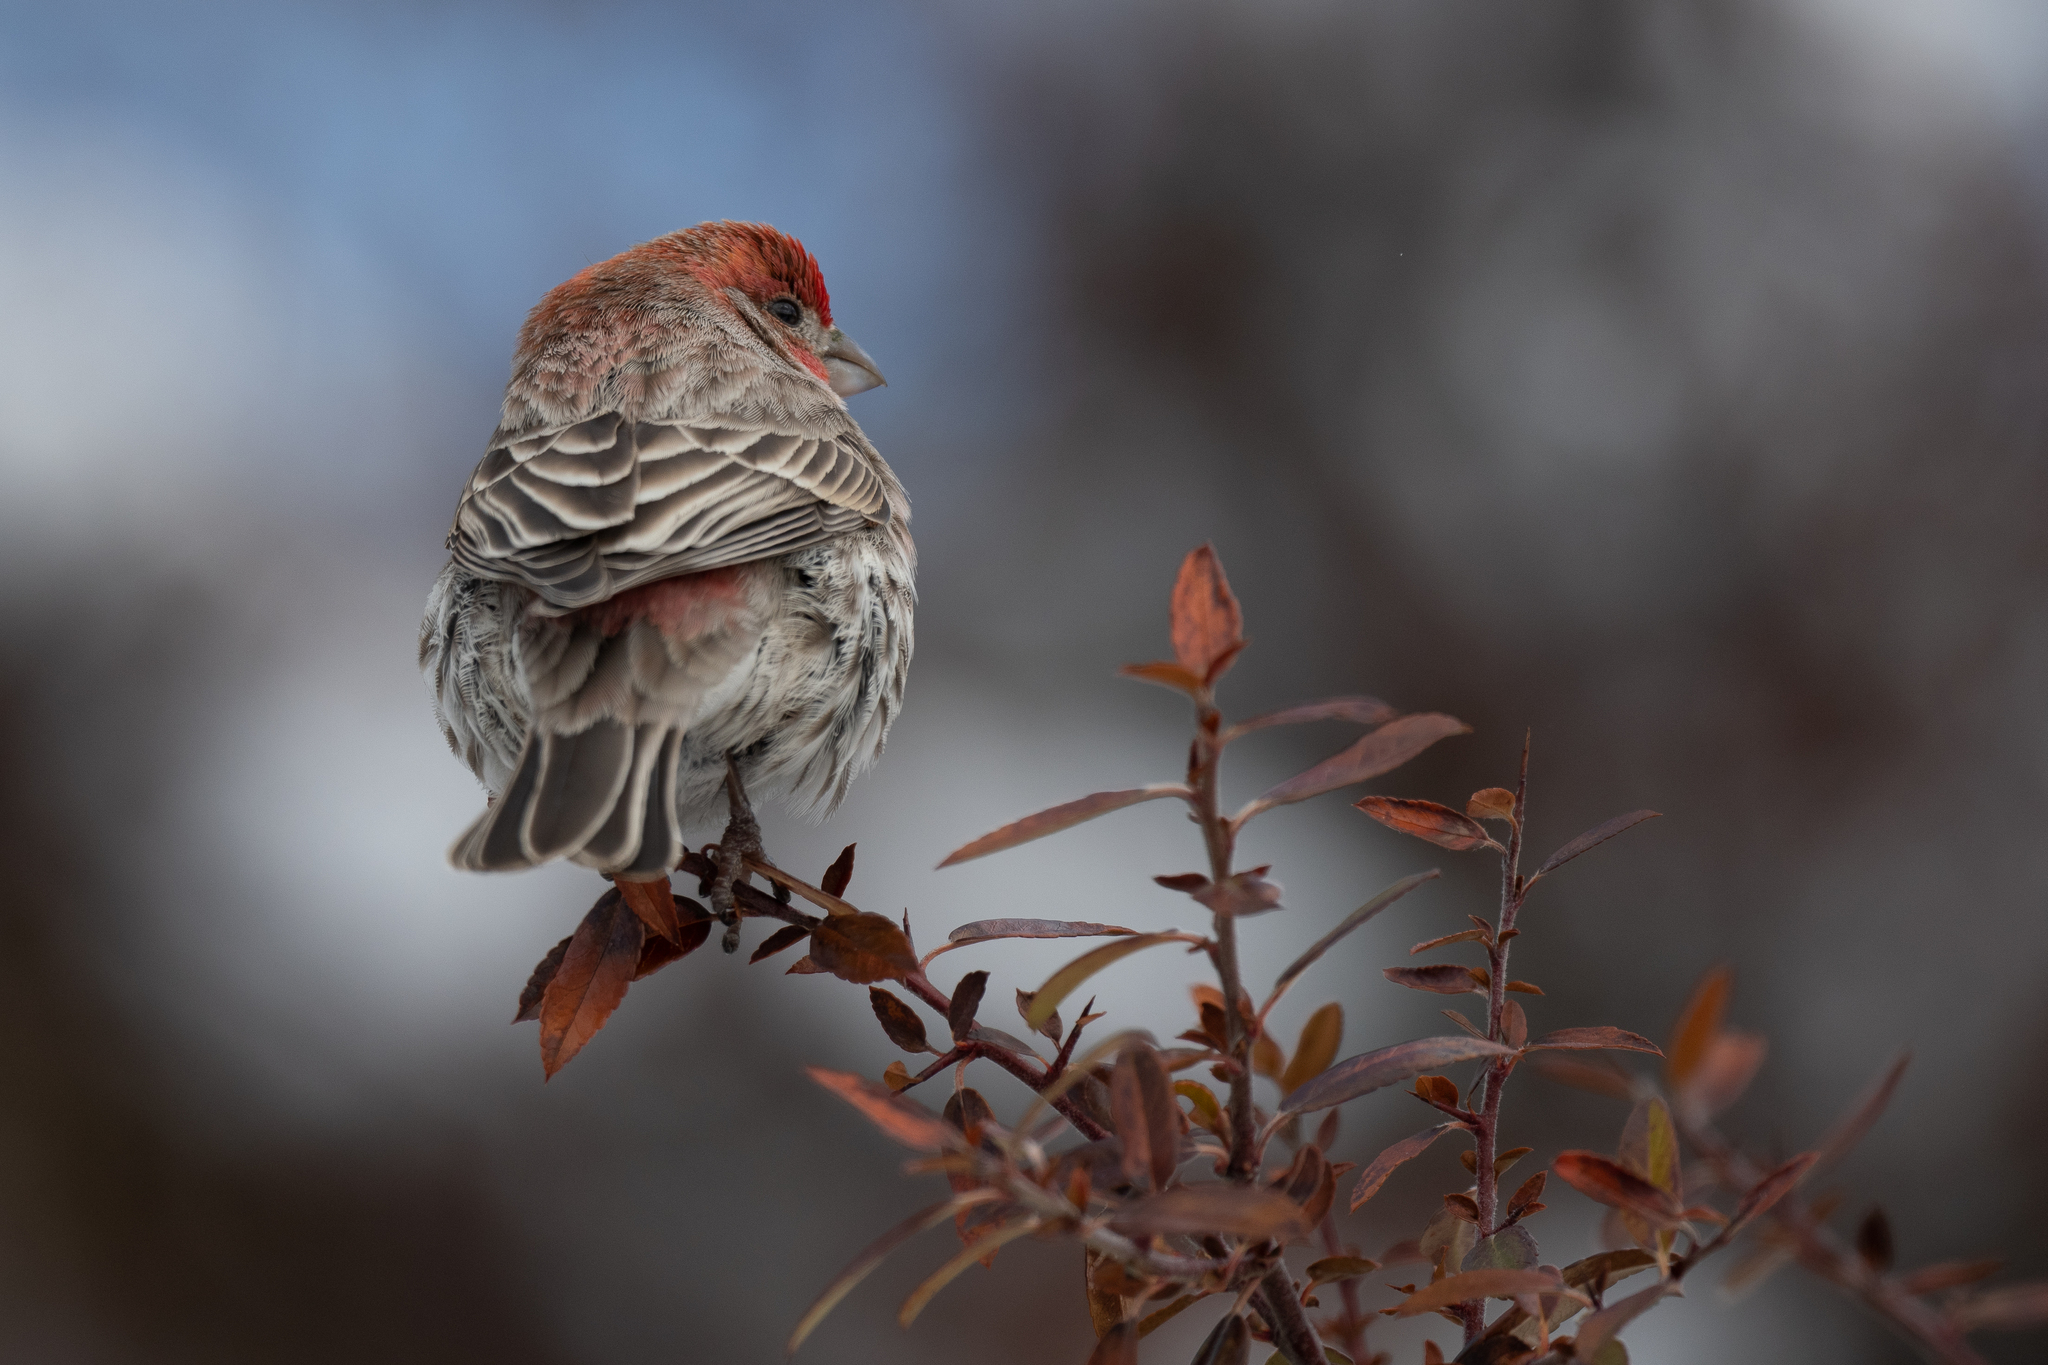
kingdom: Animalia
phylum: Chordata
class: Aves
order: Passeriformes
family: Fringillidae
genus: Haemorhous
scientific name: Haemorhous mexicanus
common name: House finch
